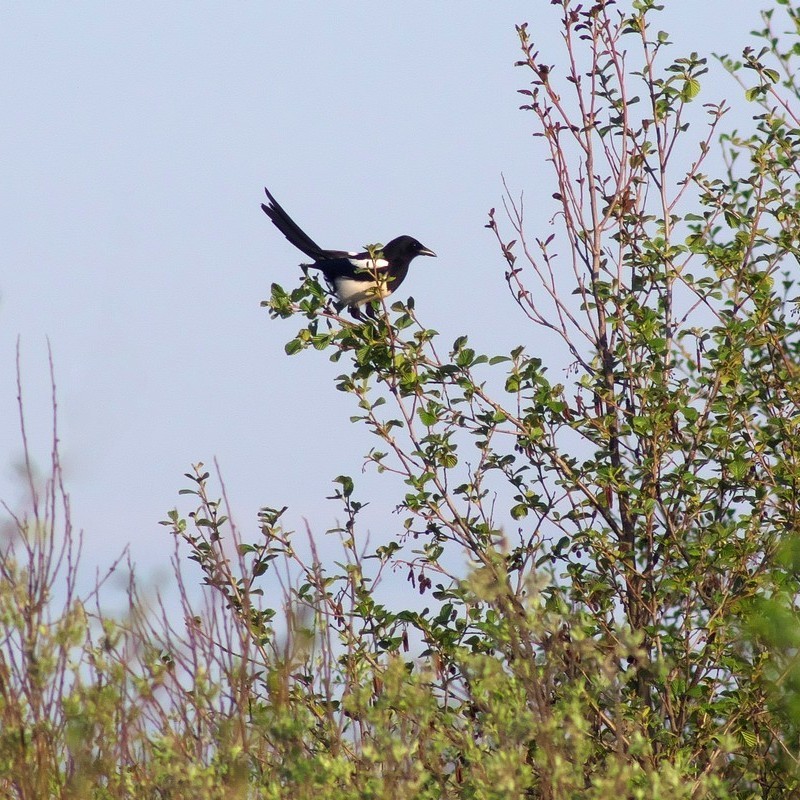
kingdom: Animalia
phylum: Chordata
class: Aves
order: Passeriformes
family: Corvidae
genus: Pica
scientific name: Pica pica
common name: Eurasian magpie
